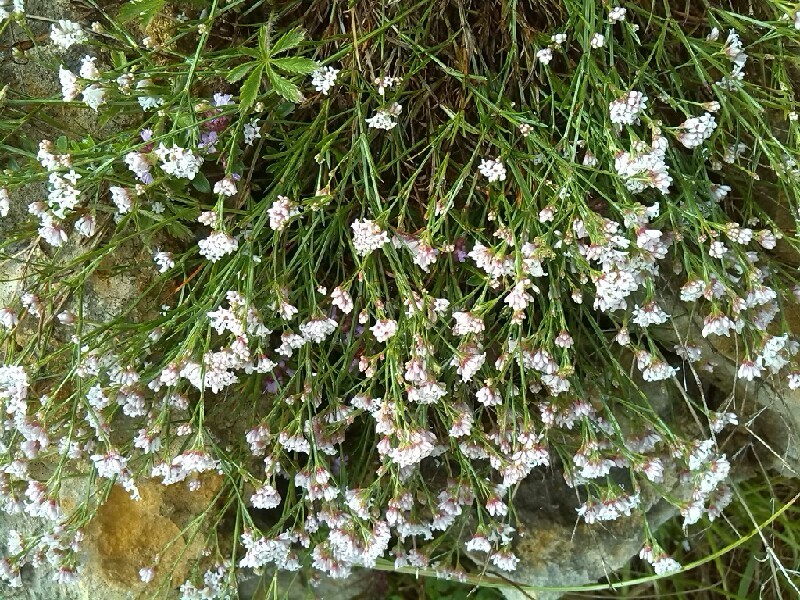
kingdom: Plantae
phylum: Tracheophyta
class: Magnoliopsida
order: Gentianales
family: Rubiaceae
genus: Cynanchica
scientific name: Cynanchica pyrenaica
